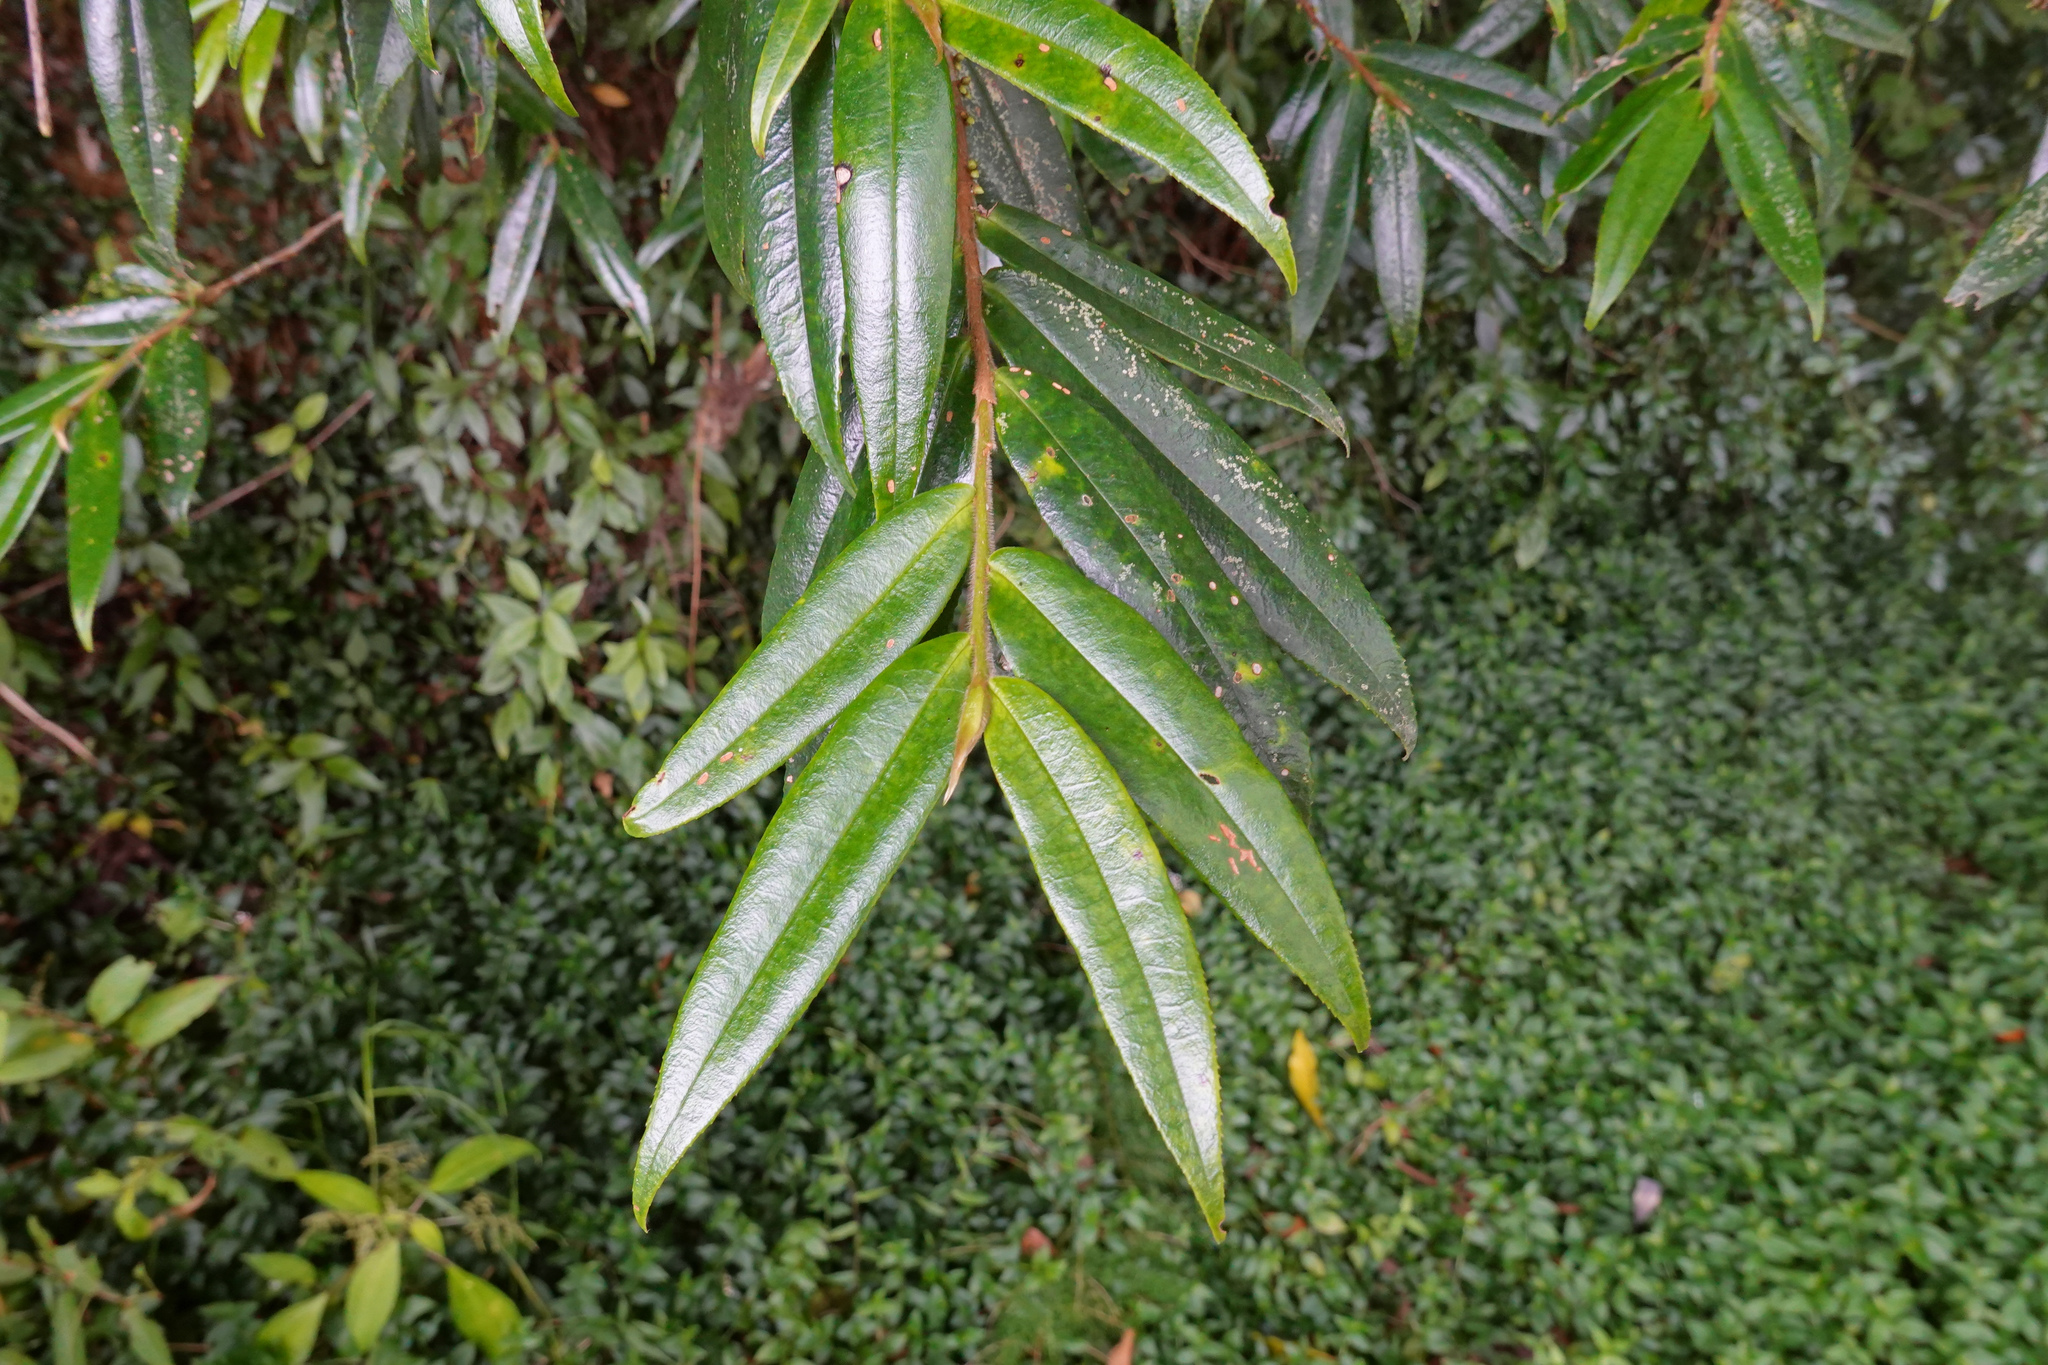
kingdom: Plantae
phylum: Tracheophyta
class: Magnoliopsida
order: Ericales
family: Pentaphylacaceae
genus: Eurya
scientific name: Eurya strigillosa
